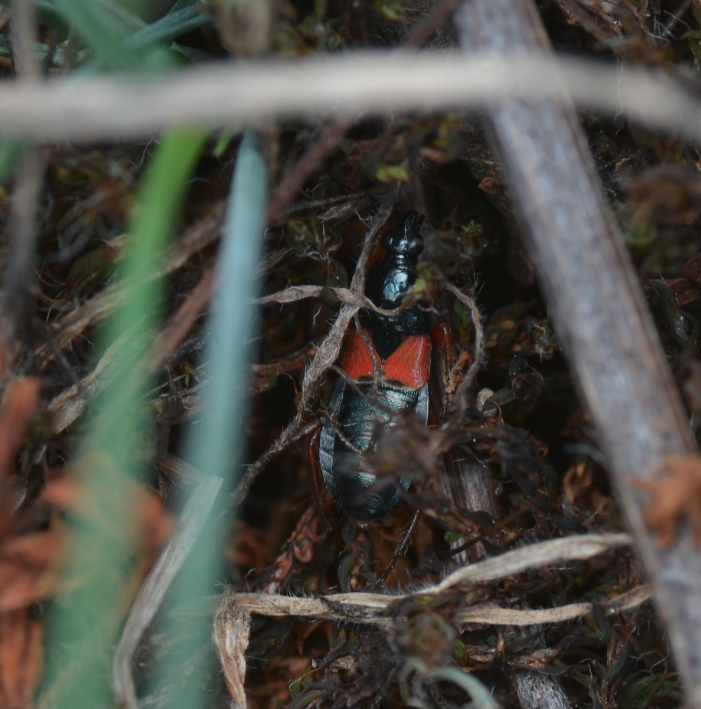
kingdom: Animalia
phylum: Arthropoda
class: Insecta
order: Hemiptera
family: Nabidae
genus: Prostemma
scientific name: Prostemma guttula
